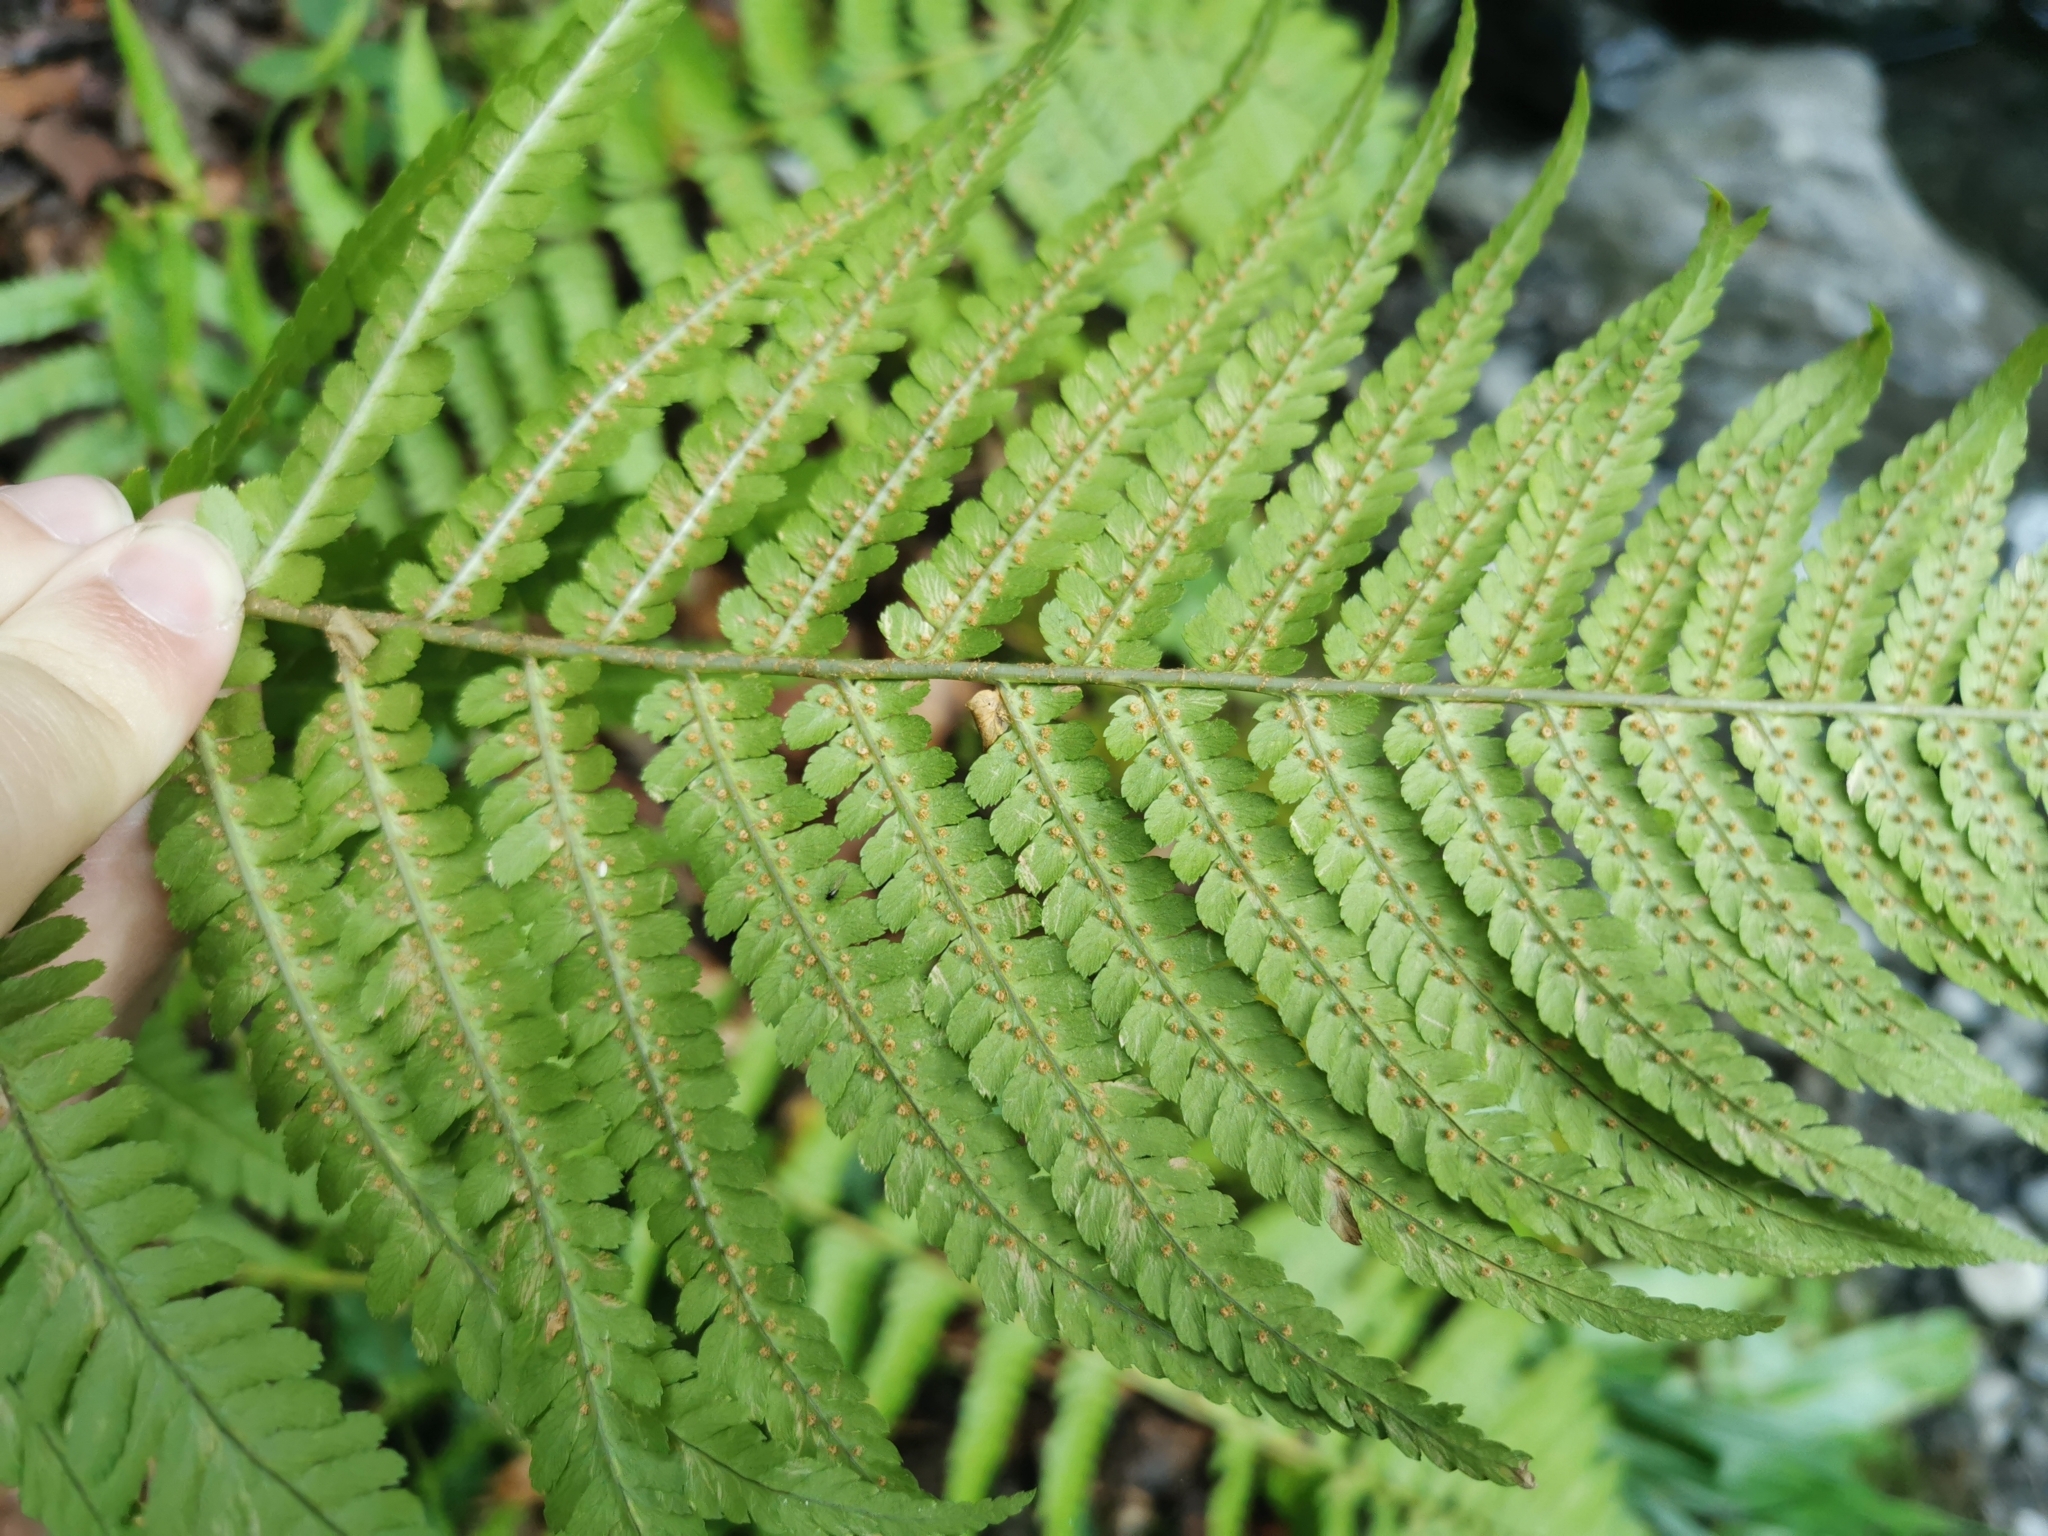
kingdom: Plantae
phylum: Tracheophyta
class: Polypodiopsida
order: Polypodiales
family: Dryopteridaceae
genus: Dryopteris
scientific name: Dryopteris filix-mas
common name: Male fern
